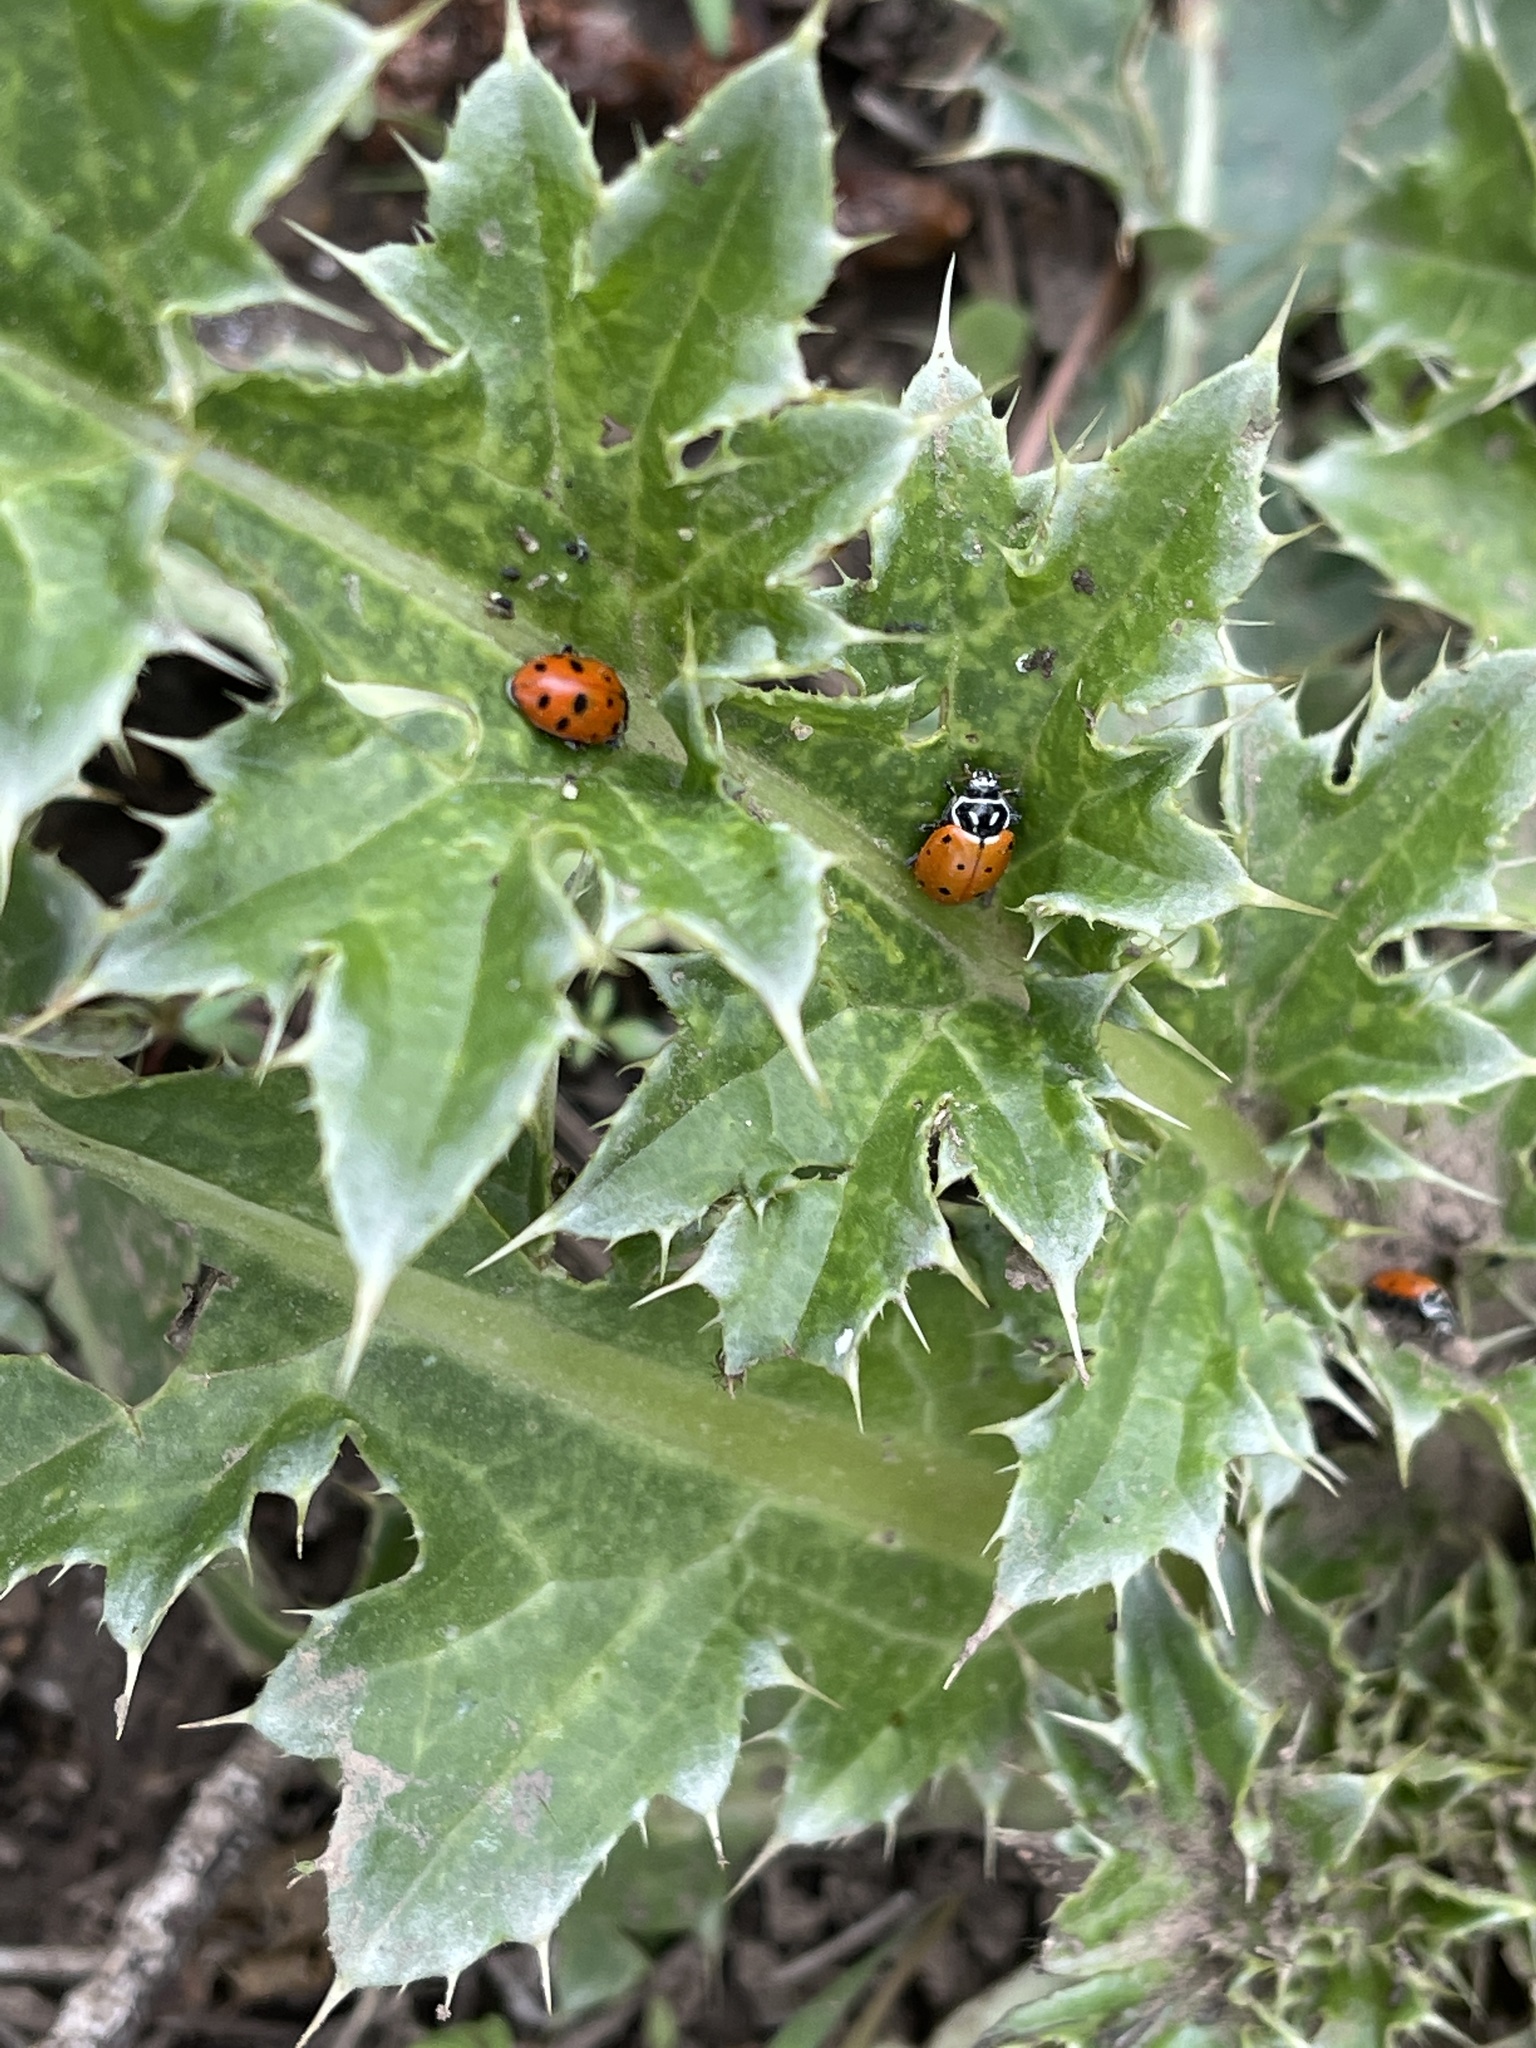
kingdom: Animalia
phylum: Arthropoda
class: Insecta
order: Coleoptera
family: Coccinellidae
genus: Hippodamia
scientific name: Hippodamia convergens
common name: Convergent lady beetle
